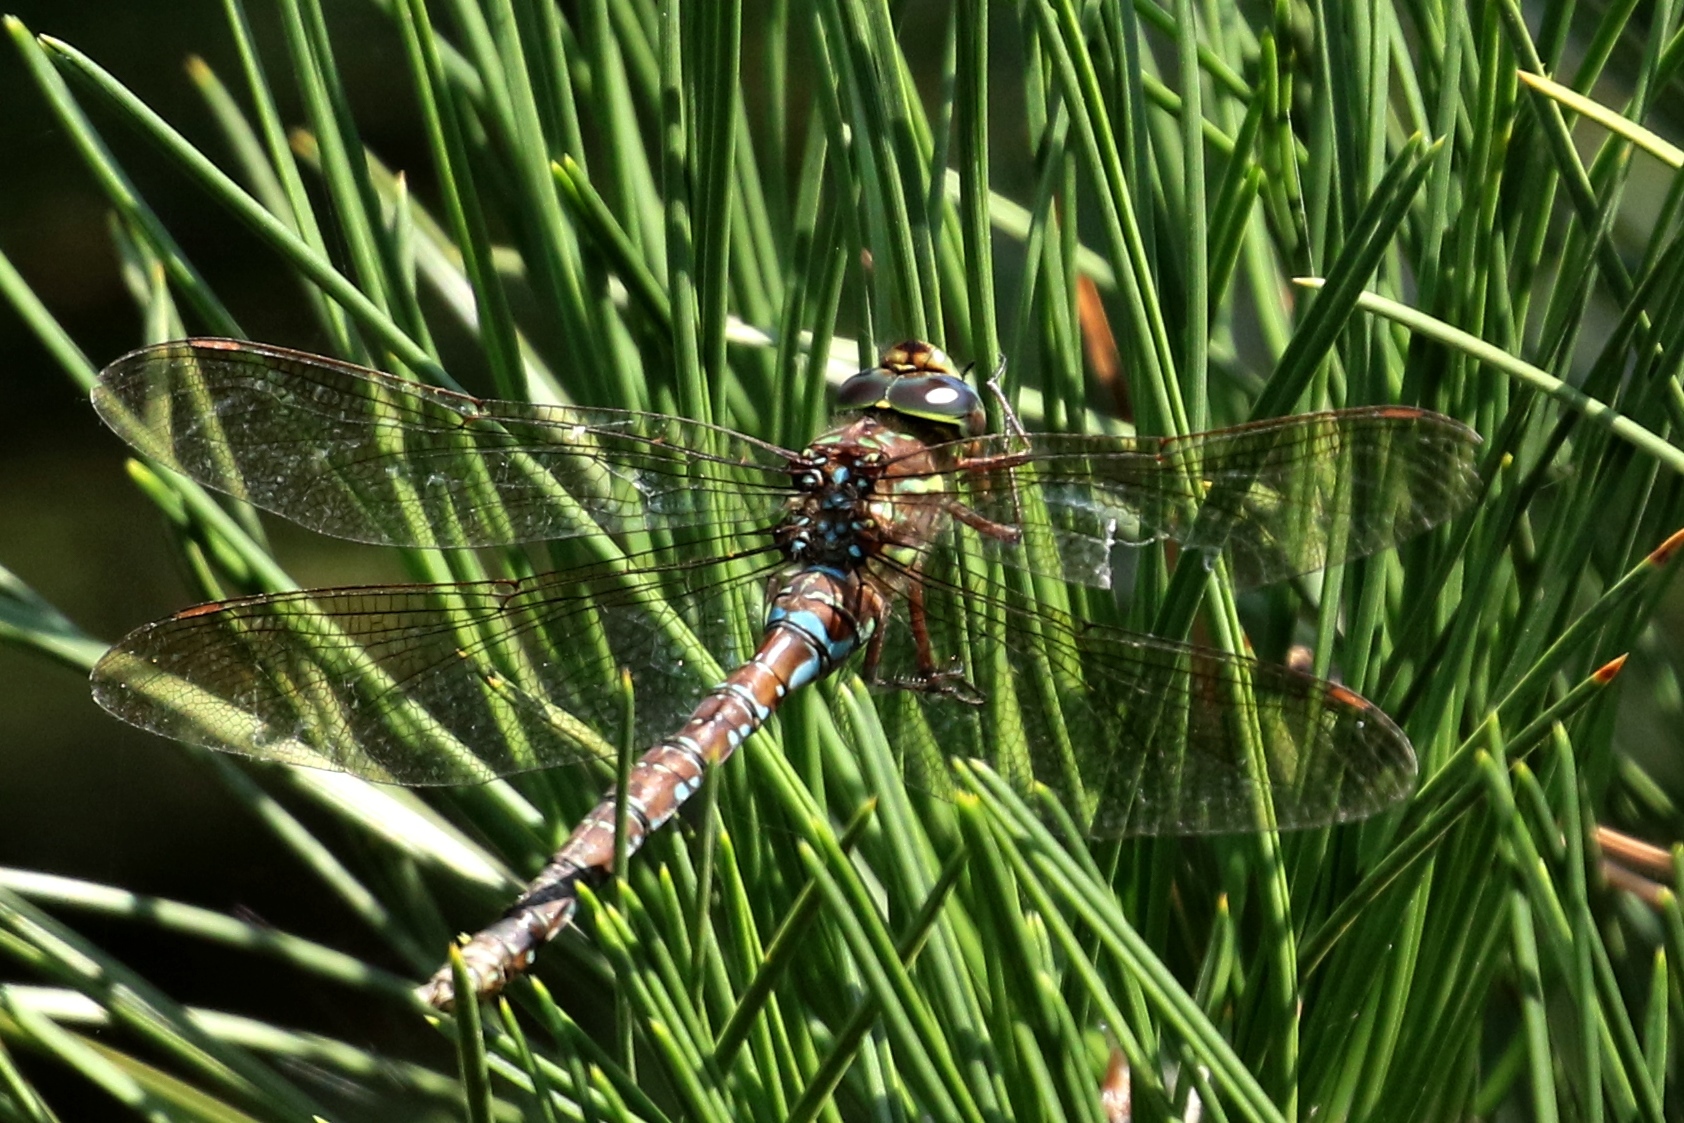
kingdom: Animalia
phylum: Arthropoda
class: Insecta
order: Odonata
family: Aeshnidae
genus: Aeshna
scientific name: Aeshna umbrosa
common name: Shadow darner
